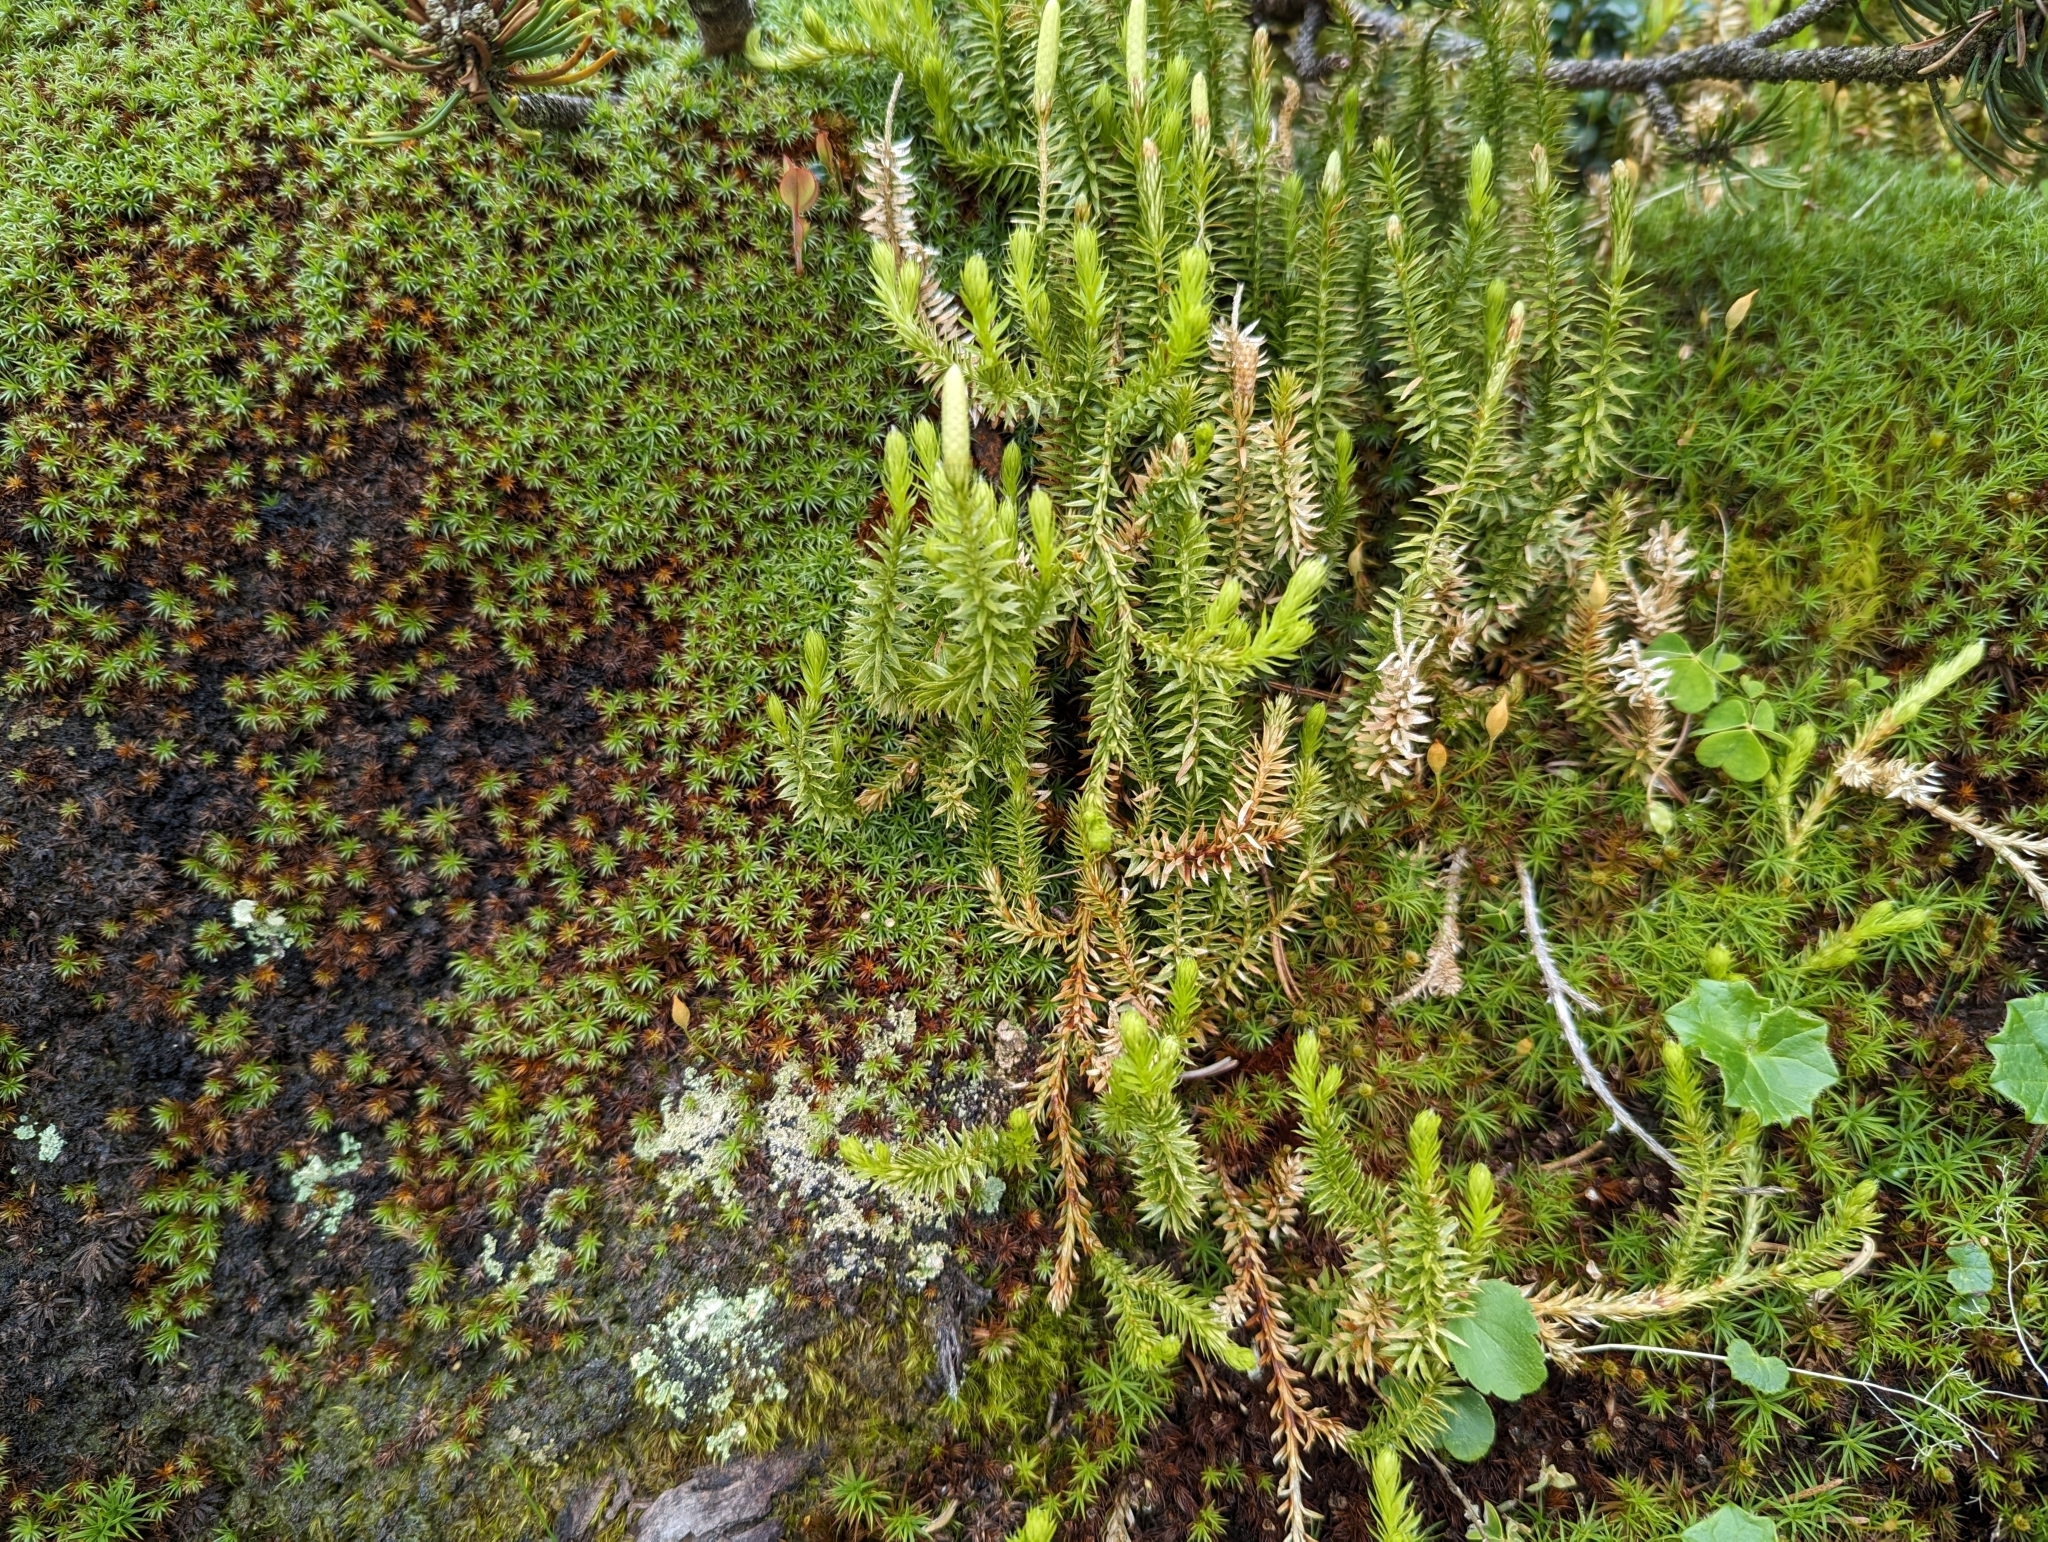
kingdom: Plantae
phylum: Tracheophyta
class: Lycopodiopsida
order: Lycopodiales
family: Lycopodiaceae
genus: Spinulum
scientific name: Spinulum annotinum
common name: Interrupted club-moss
